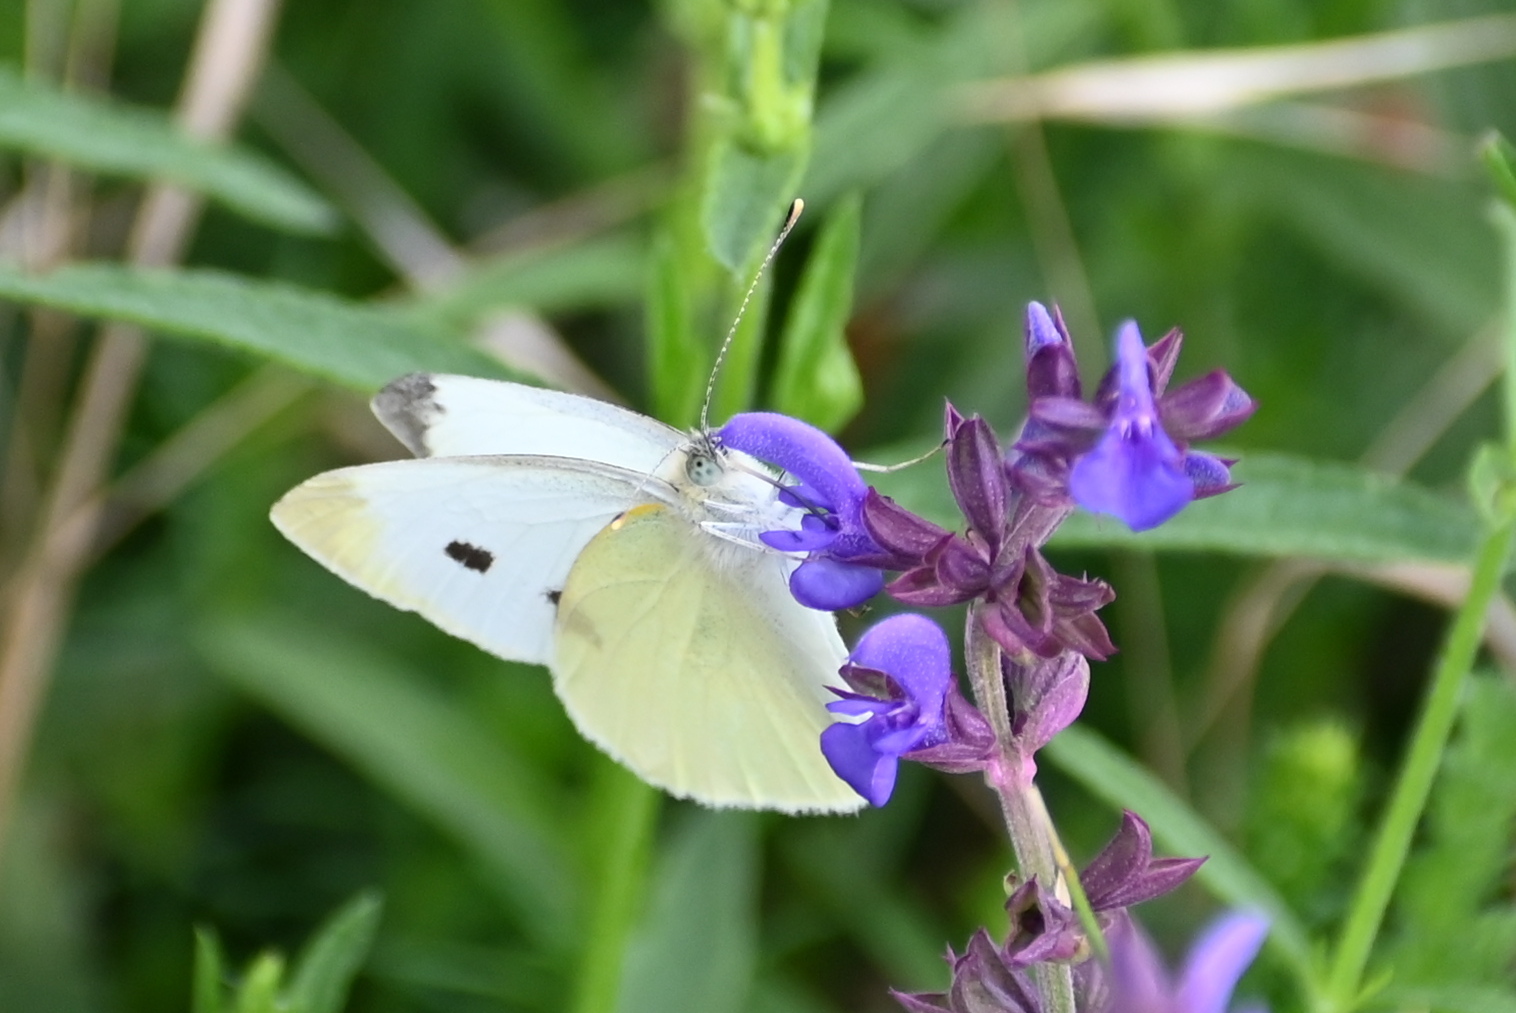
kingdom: Animalia
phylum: Arthropoda
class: Insecta
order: Lepidoptera
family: Pieridae
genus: Pieris
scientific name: Pieris rapae
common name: Small white
